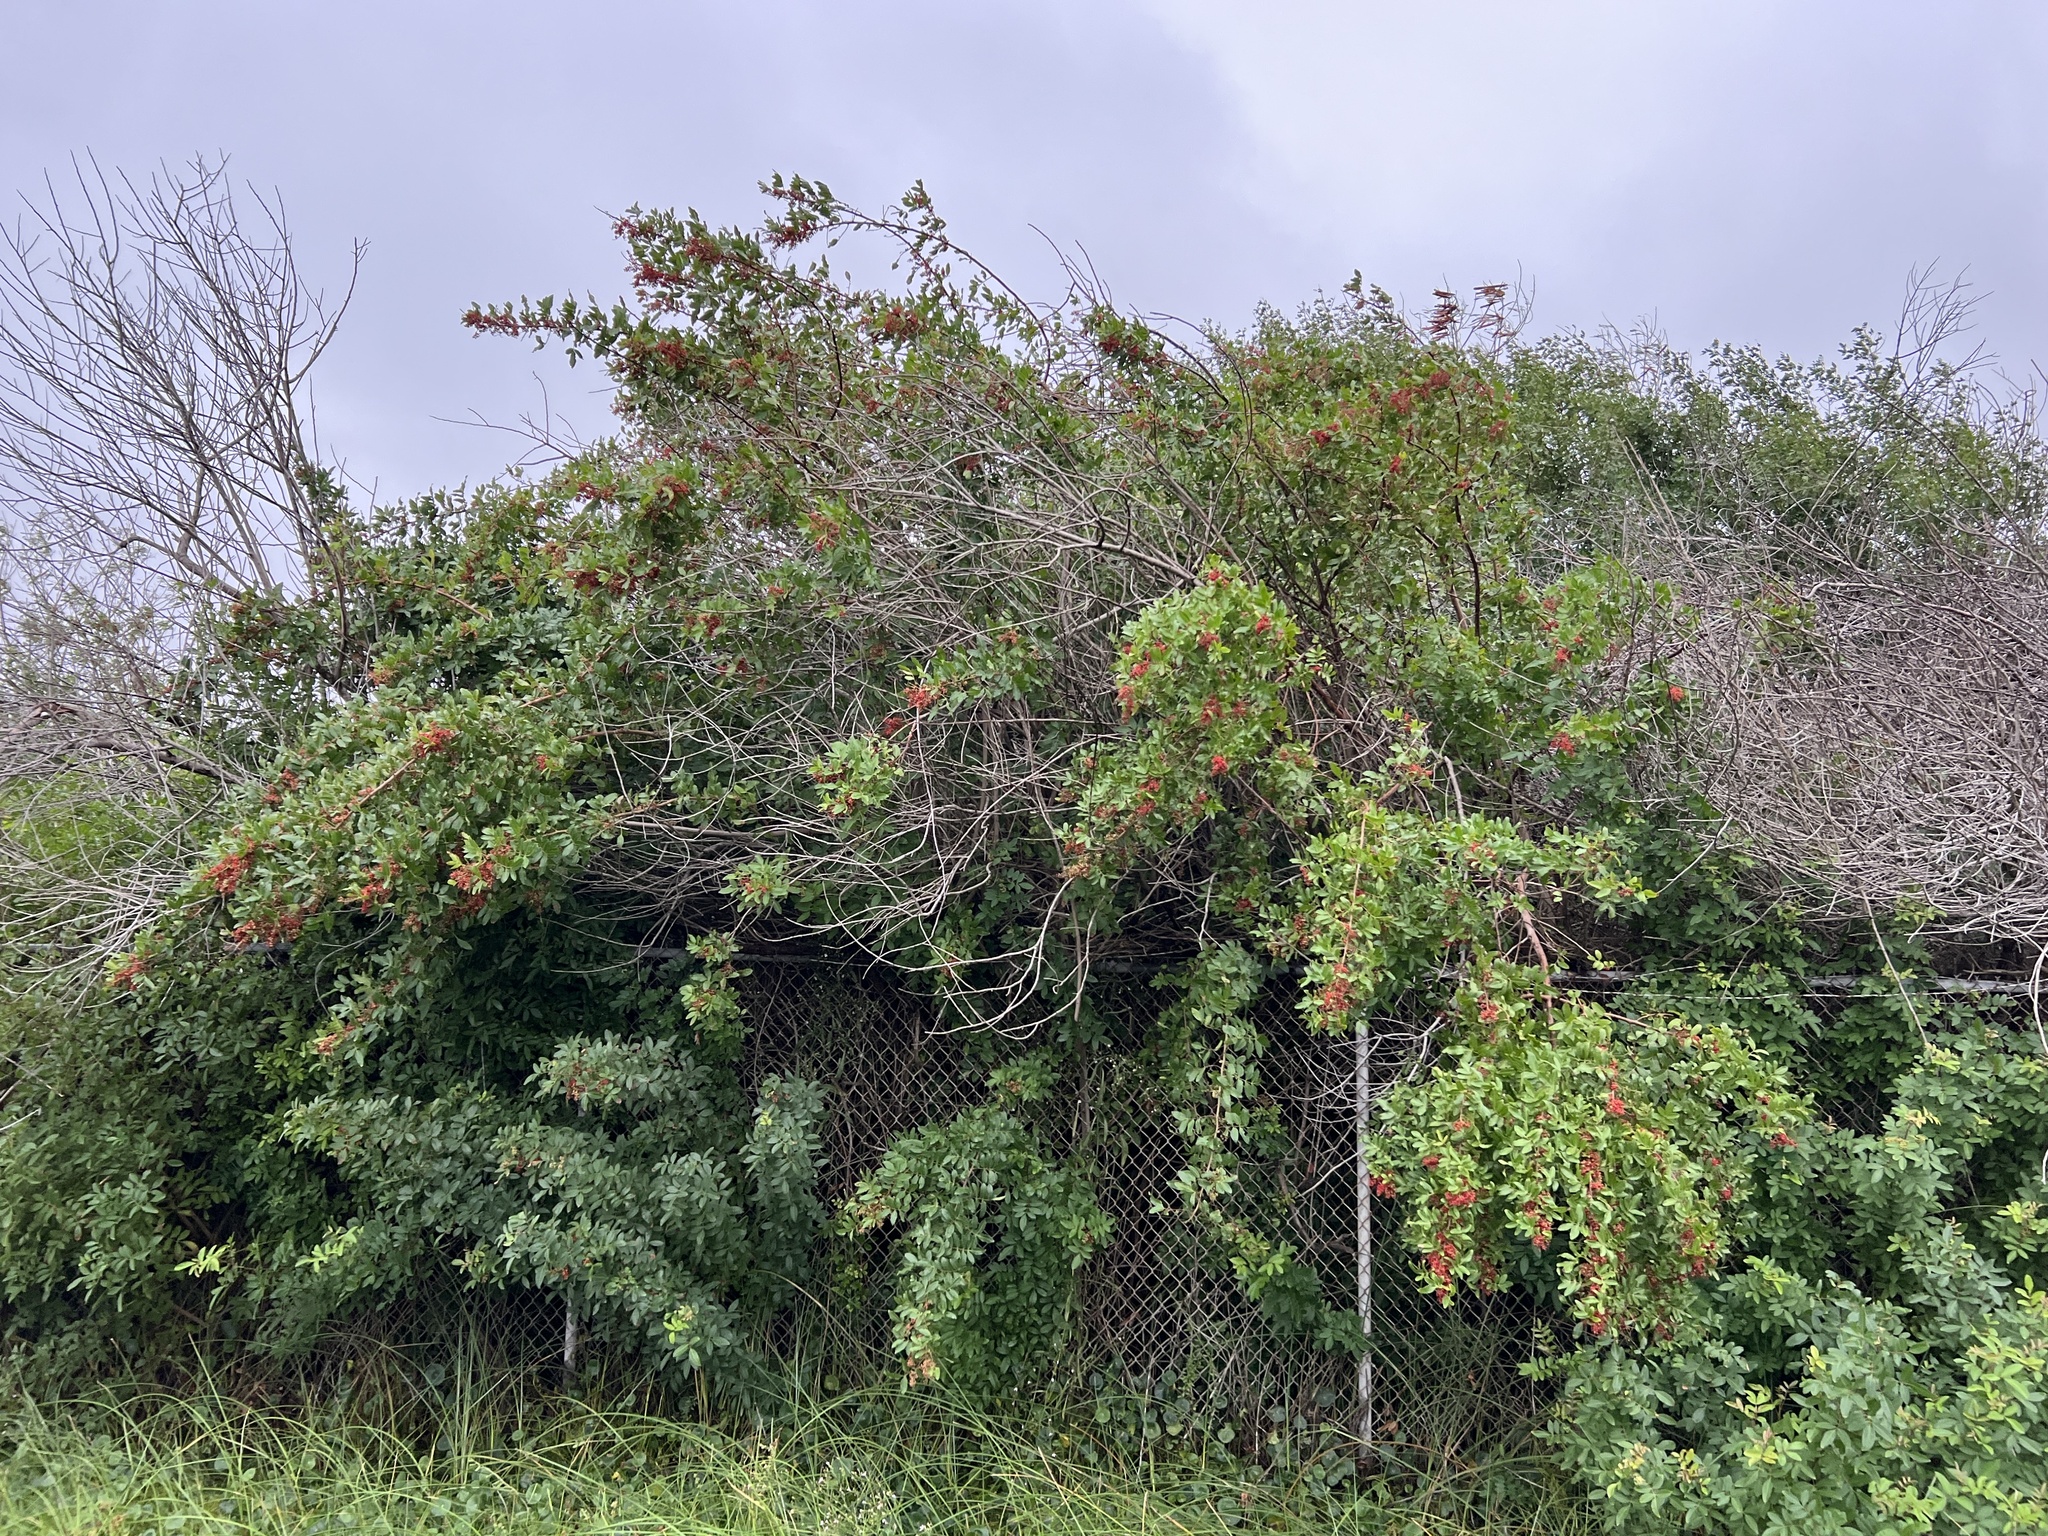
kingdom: Plantae
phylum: Tracheophyta
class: Magnoliopsida
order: Sapindales
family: Anacardiaceae
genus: Schinus
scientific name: Schinus terebinthifolia
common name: Brazilian peppertree
